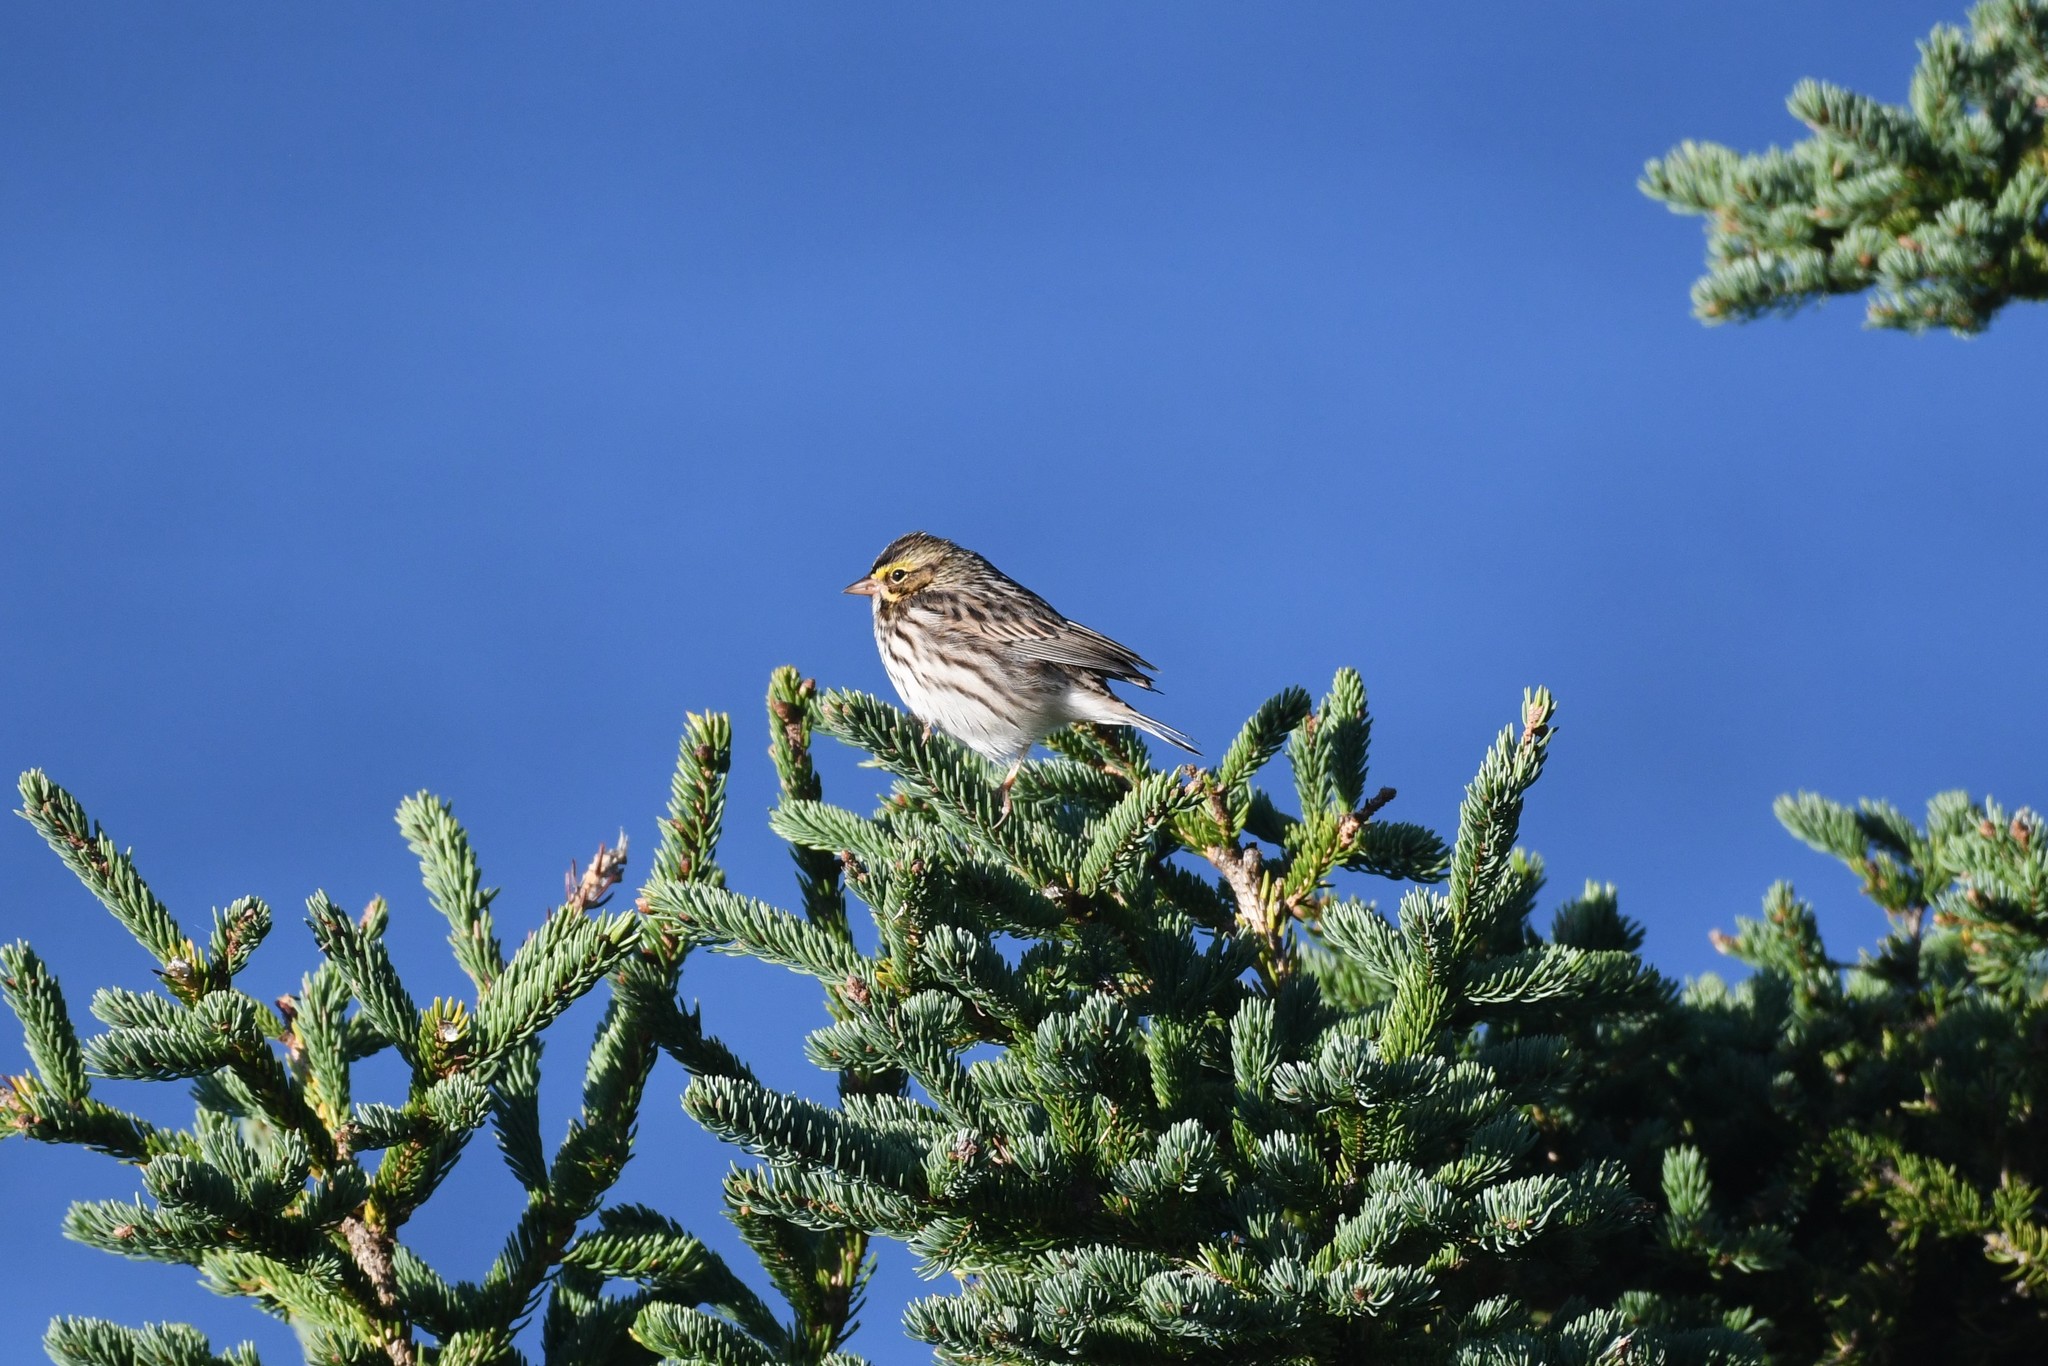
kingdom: Animalia
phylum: Chordata
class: Aves
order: Passeriformes
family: Passerellidae
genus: Passerculus
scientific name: Passerculus sandwichensis
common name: Savannah sparrow
